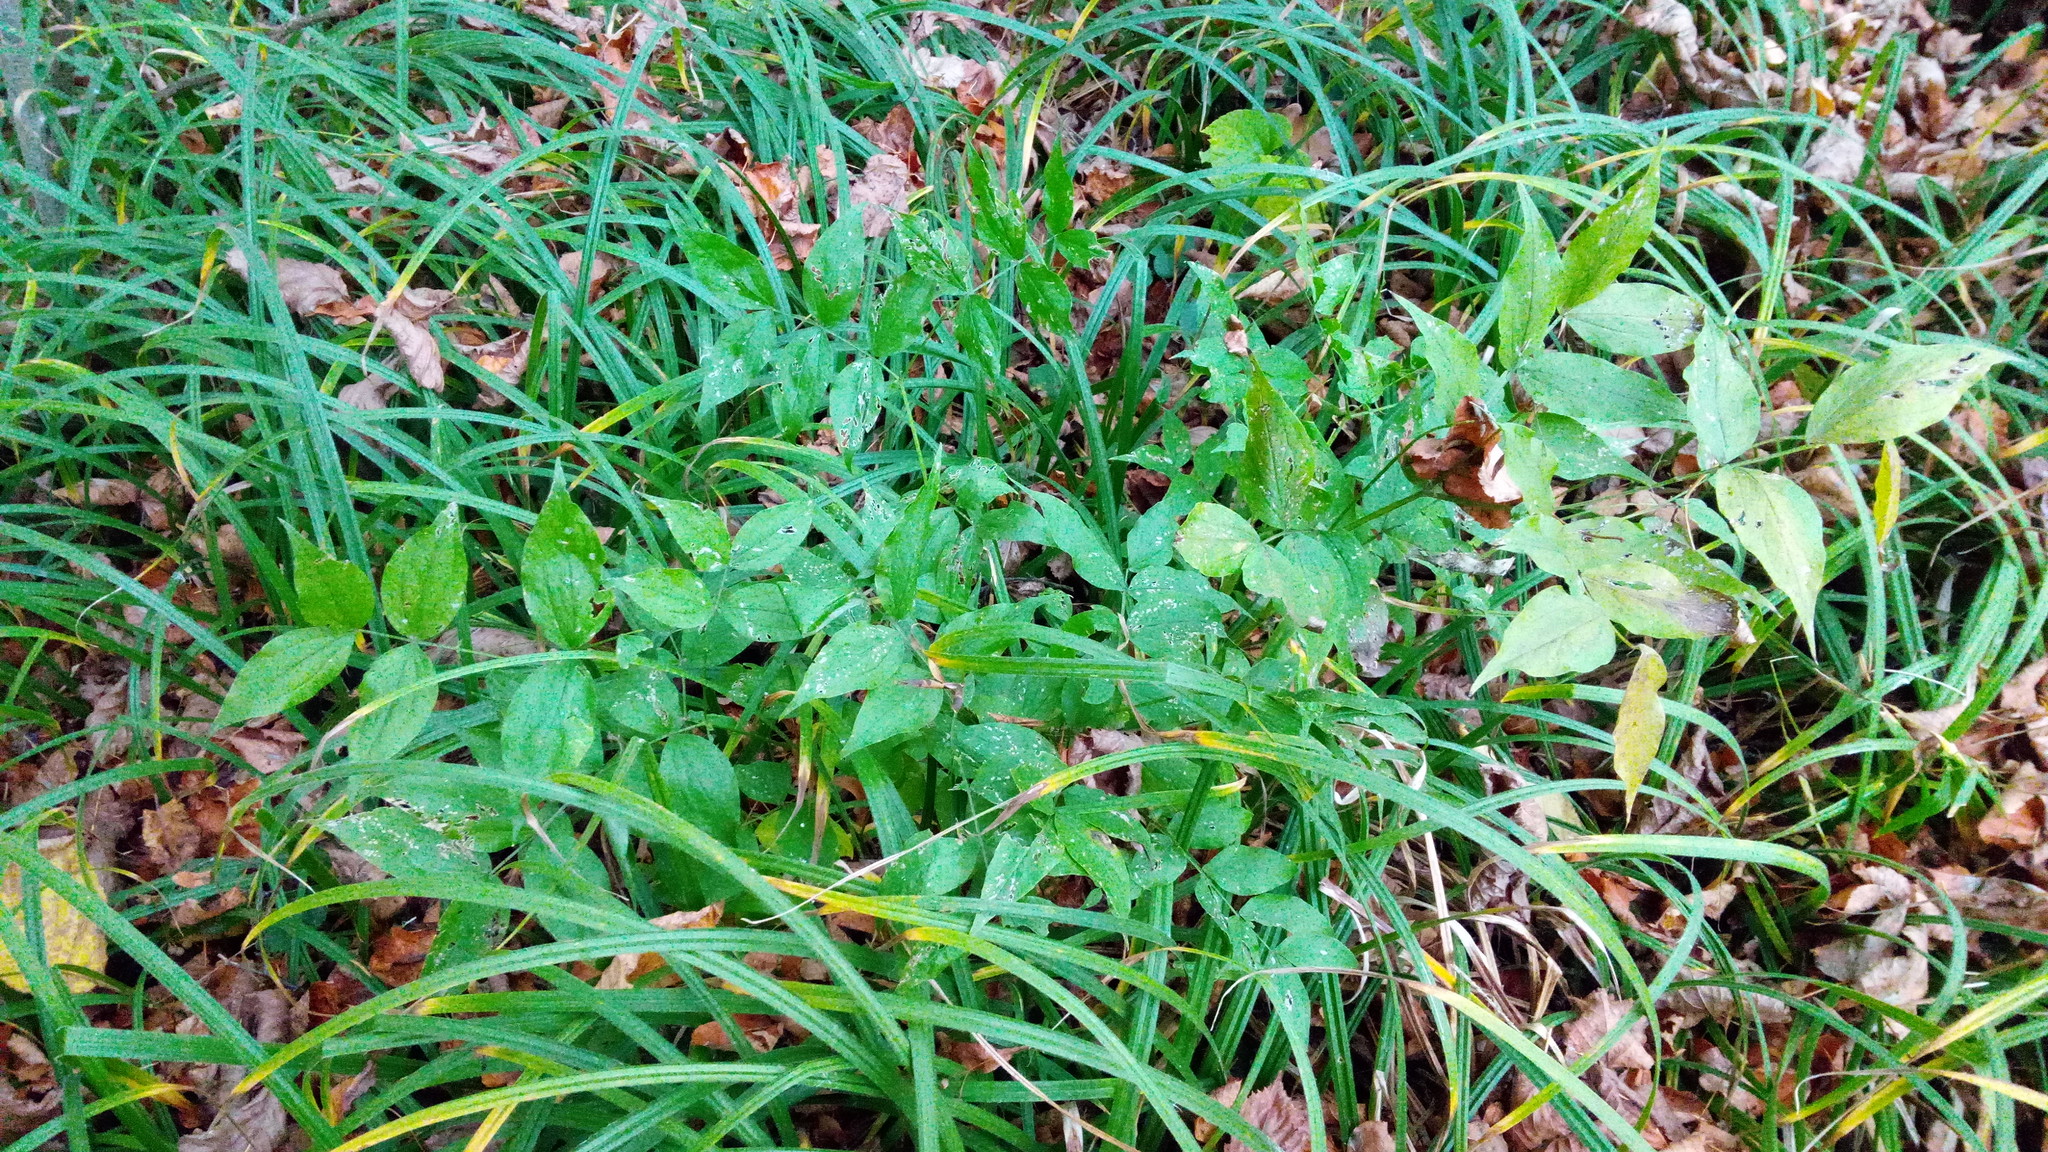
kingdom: Plantae
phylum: Tracheophyta
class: Magnoliopsida
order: Fabales
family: Fabaceae
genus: Lathyrus
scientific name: Lathyrus vernus
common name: Spring pea
